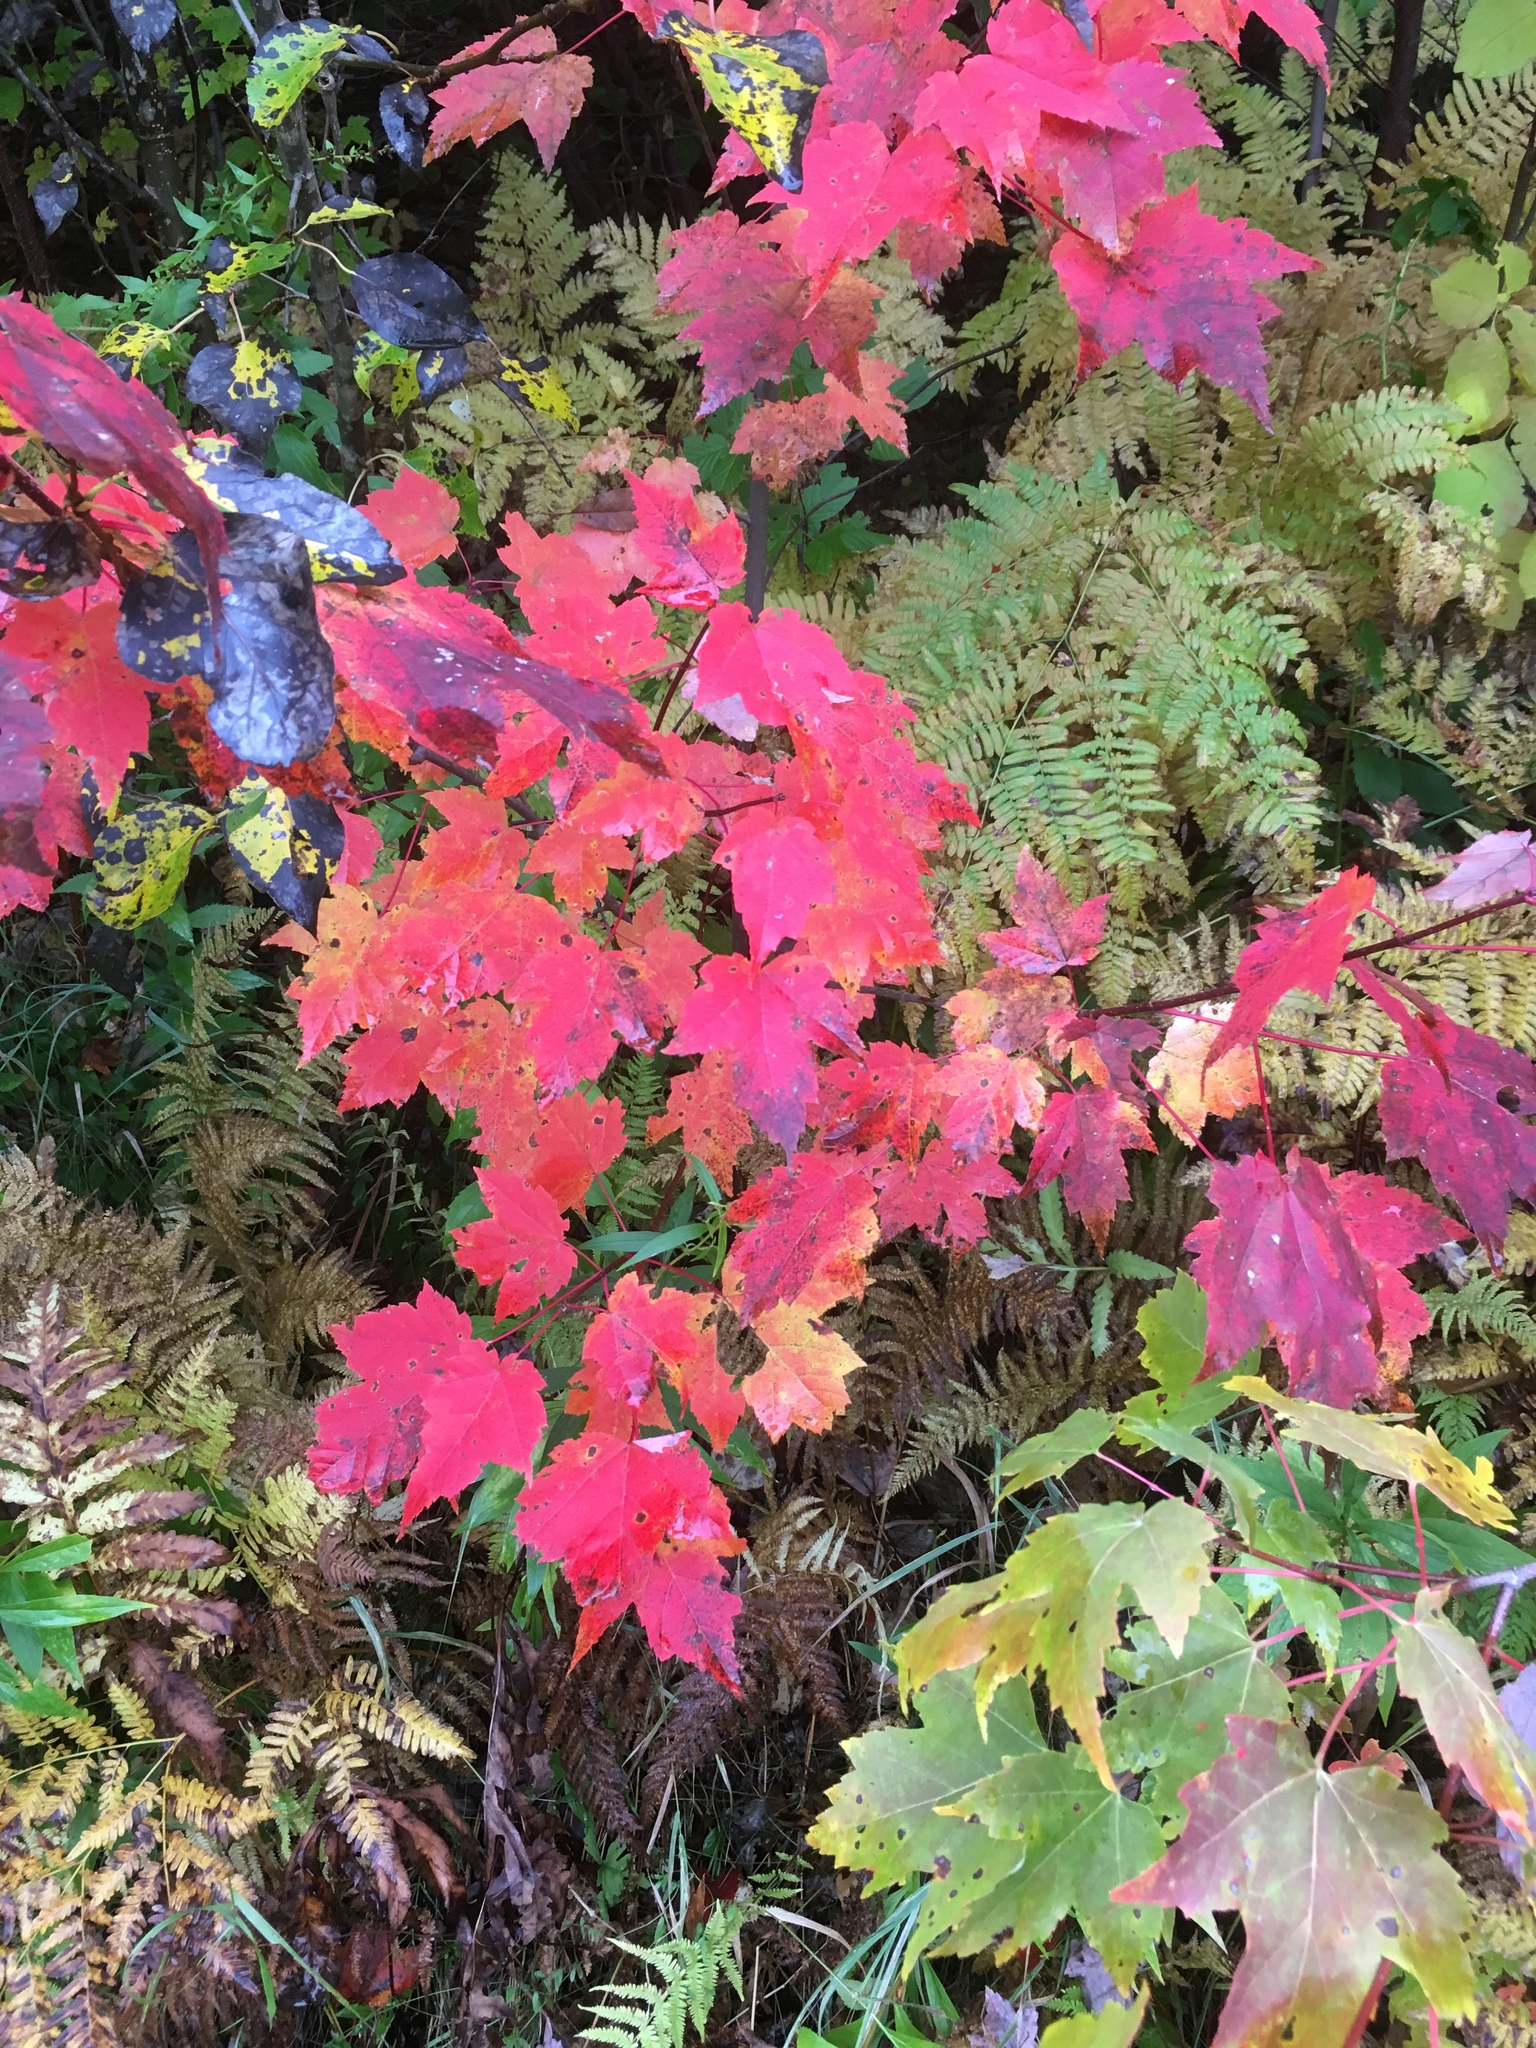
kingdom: Plantae
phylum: Tracheophyta
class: Magnoliopsida
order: Sapindales
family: Sapindaceae
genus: Acer
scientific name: Acer rubrum
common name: Red maple
